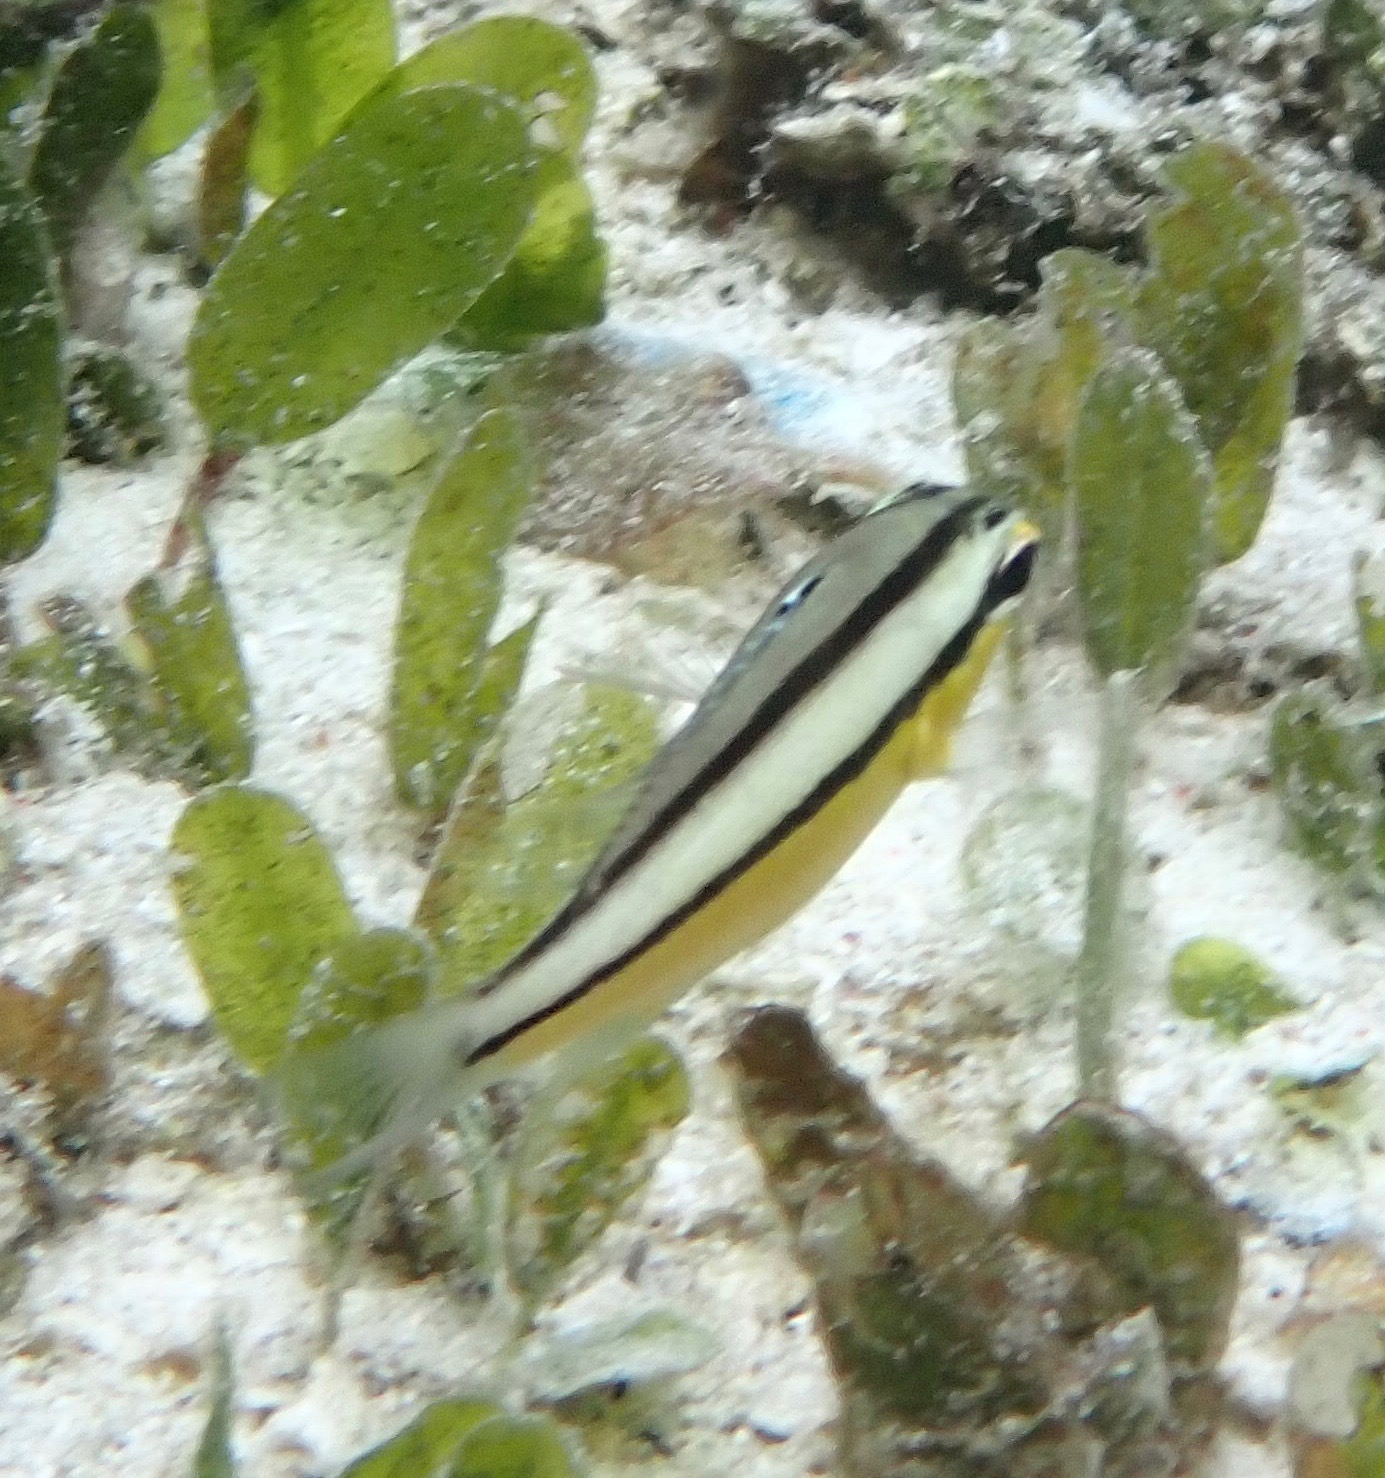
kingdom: Animalia
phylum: Chordata
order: Perciformes
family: Nemipteridae
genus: Scolopsis
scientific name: Scolopsis margaritifera
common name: Pearly monocle bream
